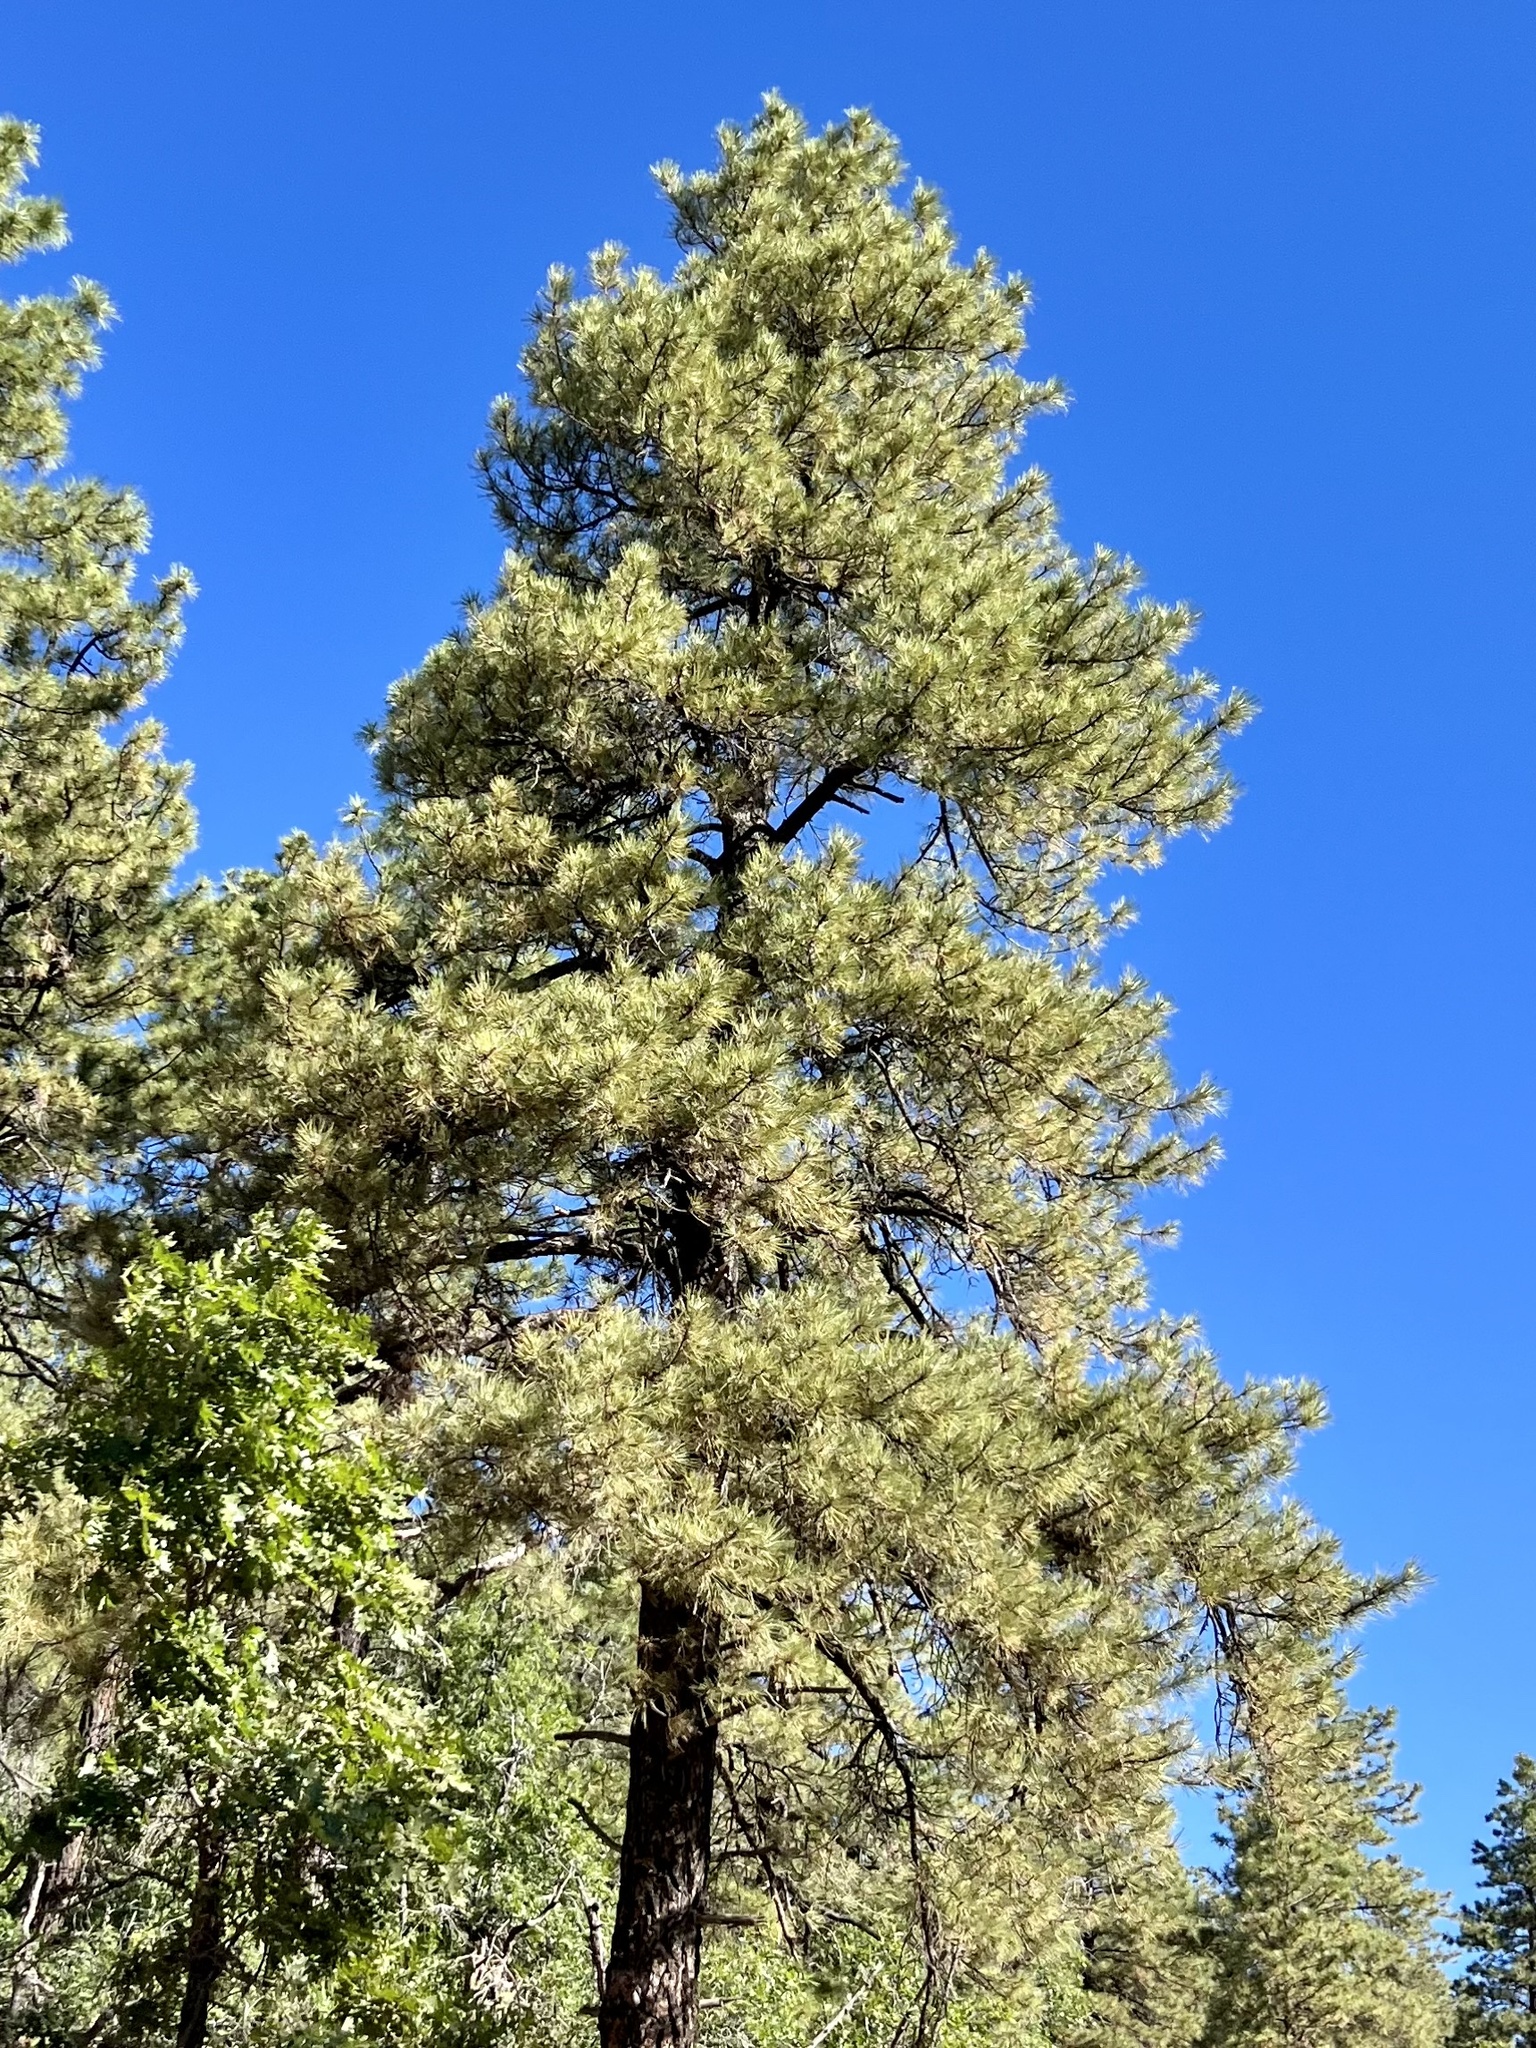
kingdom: Plantae
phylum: Tracheophyta
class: Pinopsida
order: Pinales
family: Pinaceae
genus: Pinus
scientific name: Pinus ponderosa
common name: Western yellow-pine
